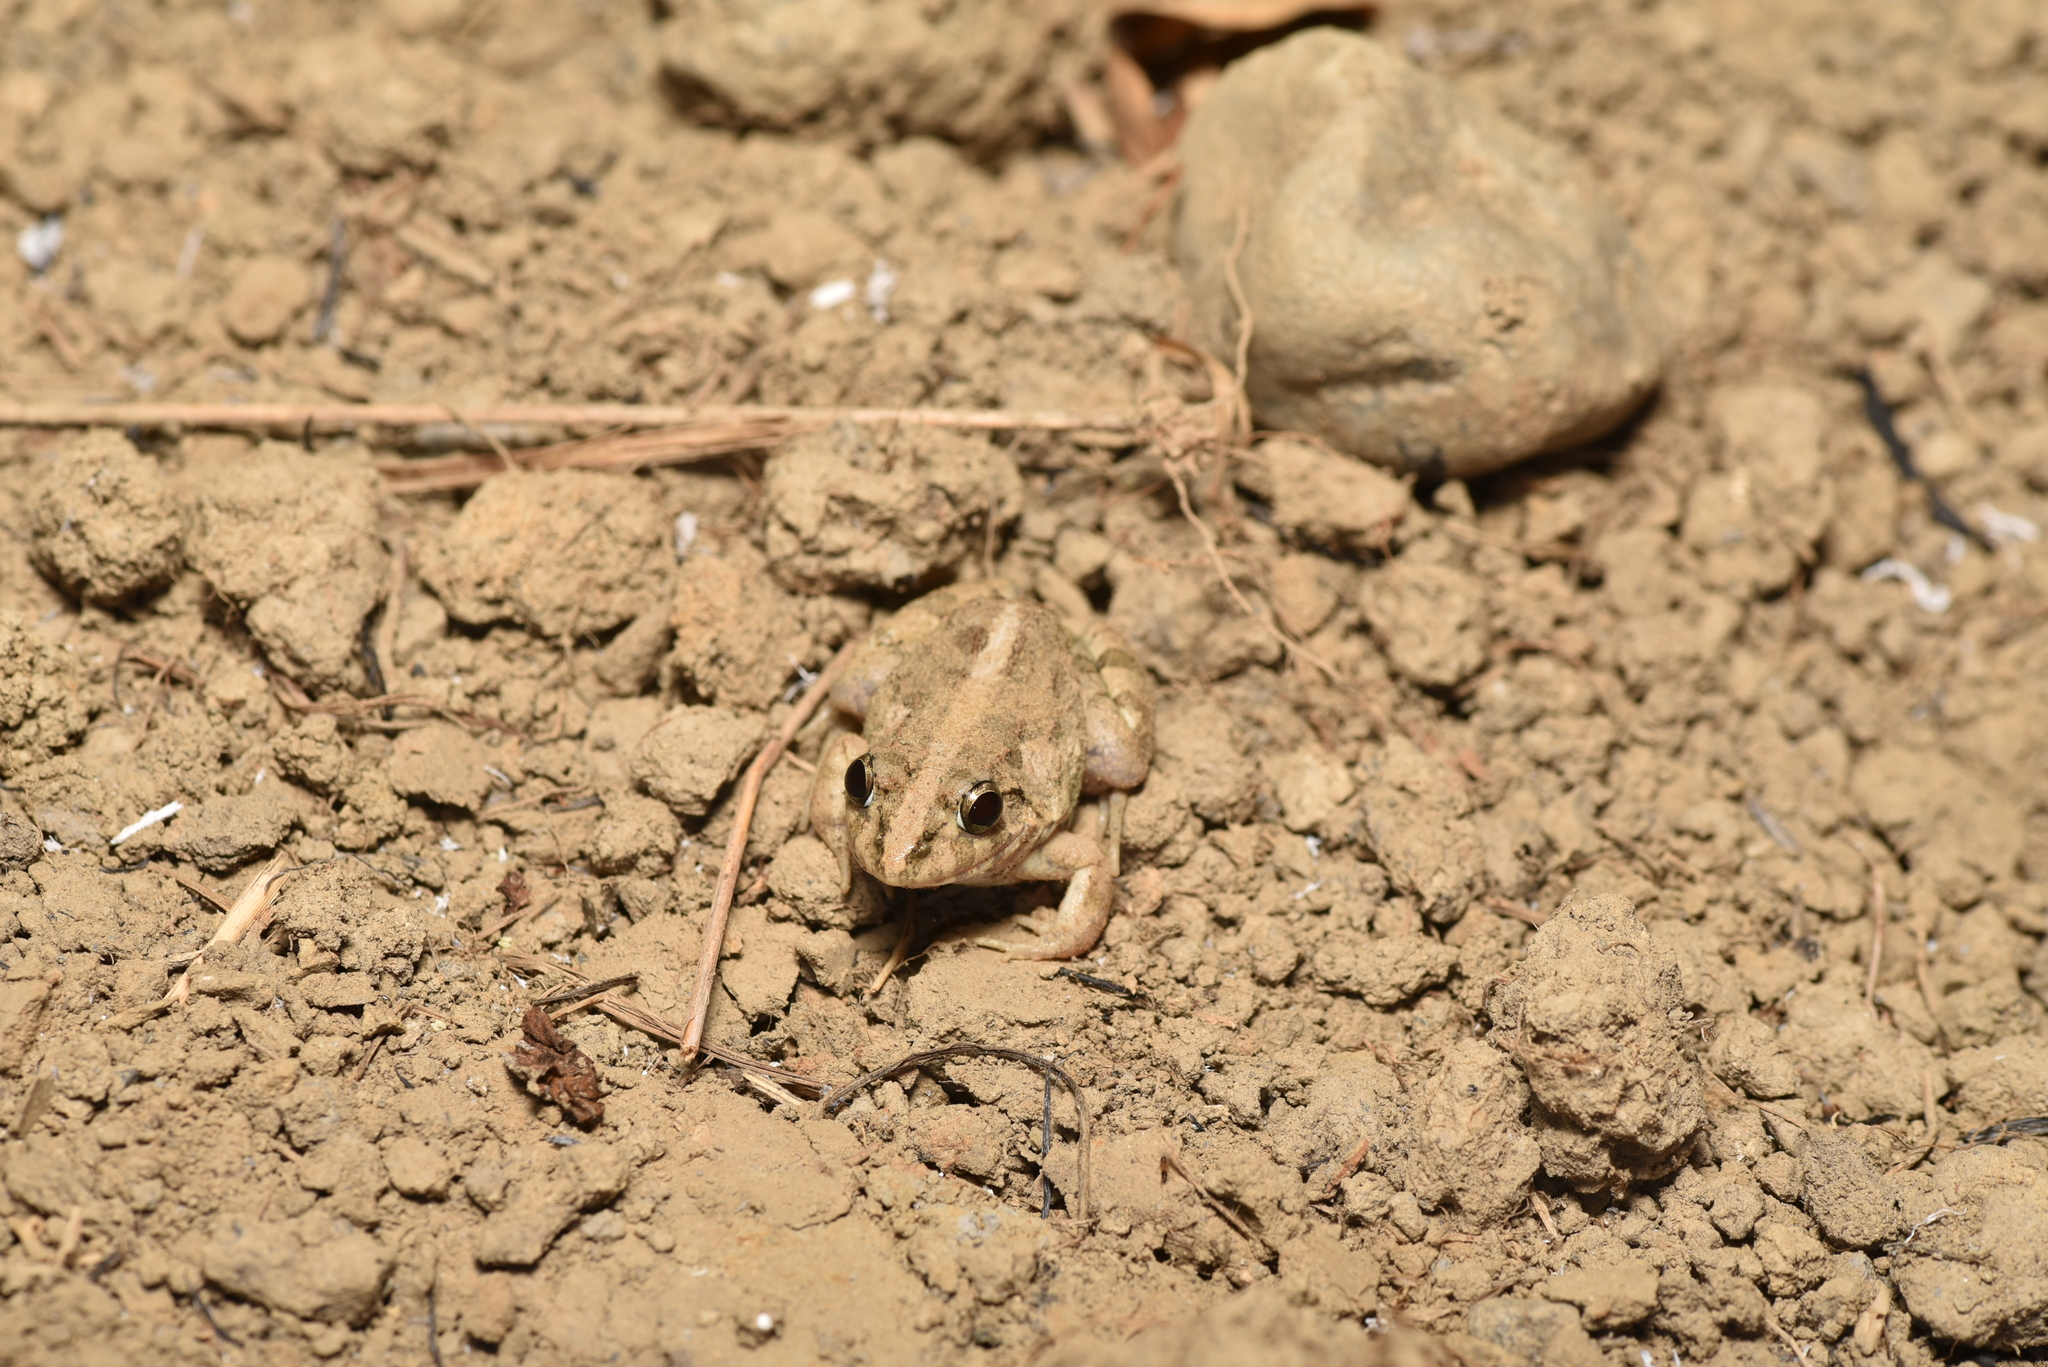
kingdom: Animalia
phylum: Chordata
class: Amphibia
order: Anura
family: Dicroglossidae
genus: Fejervarya
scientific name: Fejervarya limnocharis
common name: Asian grass frog/common pond frog/field frog/grass frog/indian rice frog
